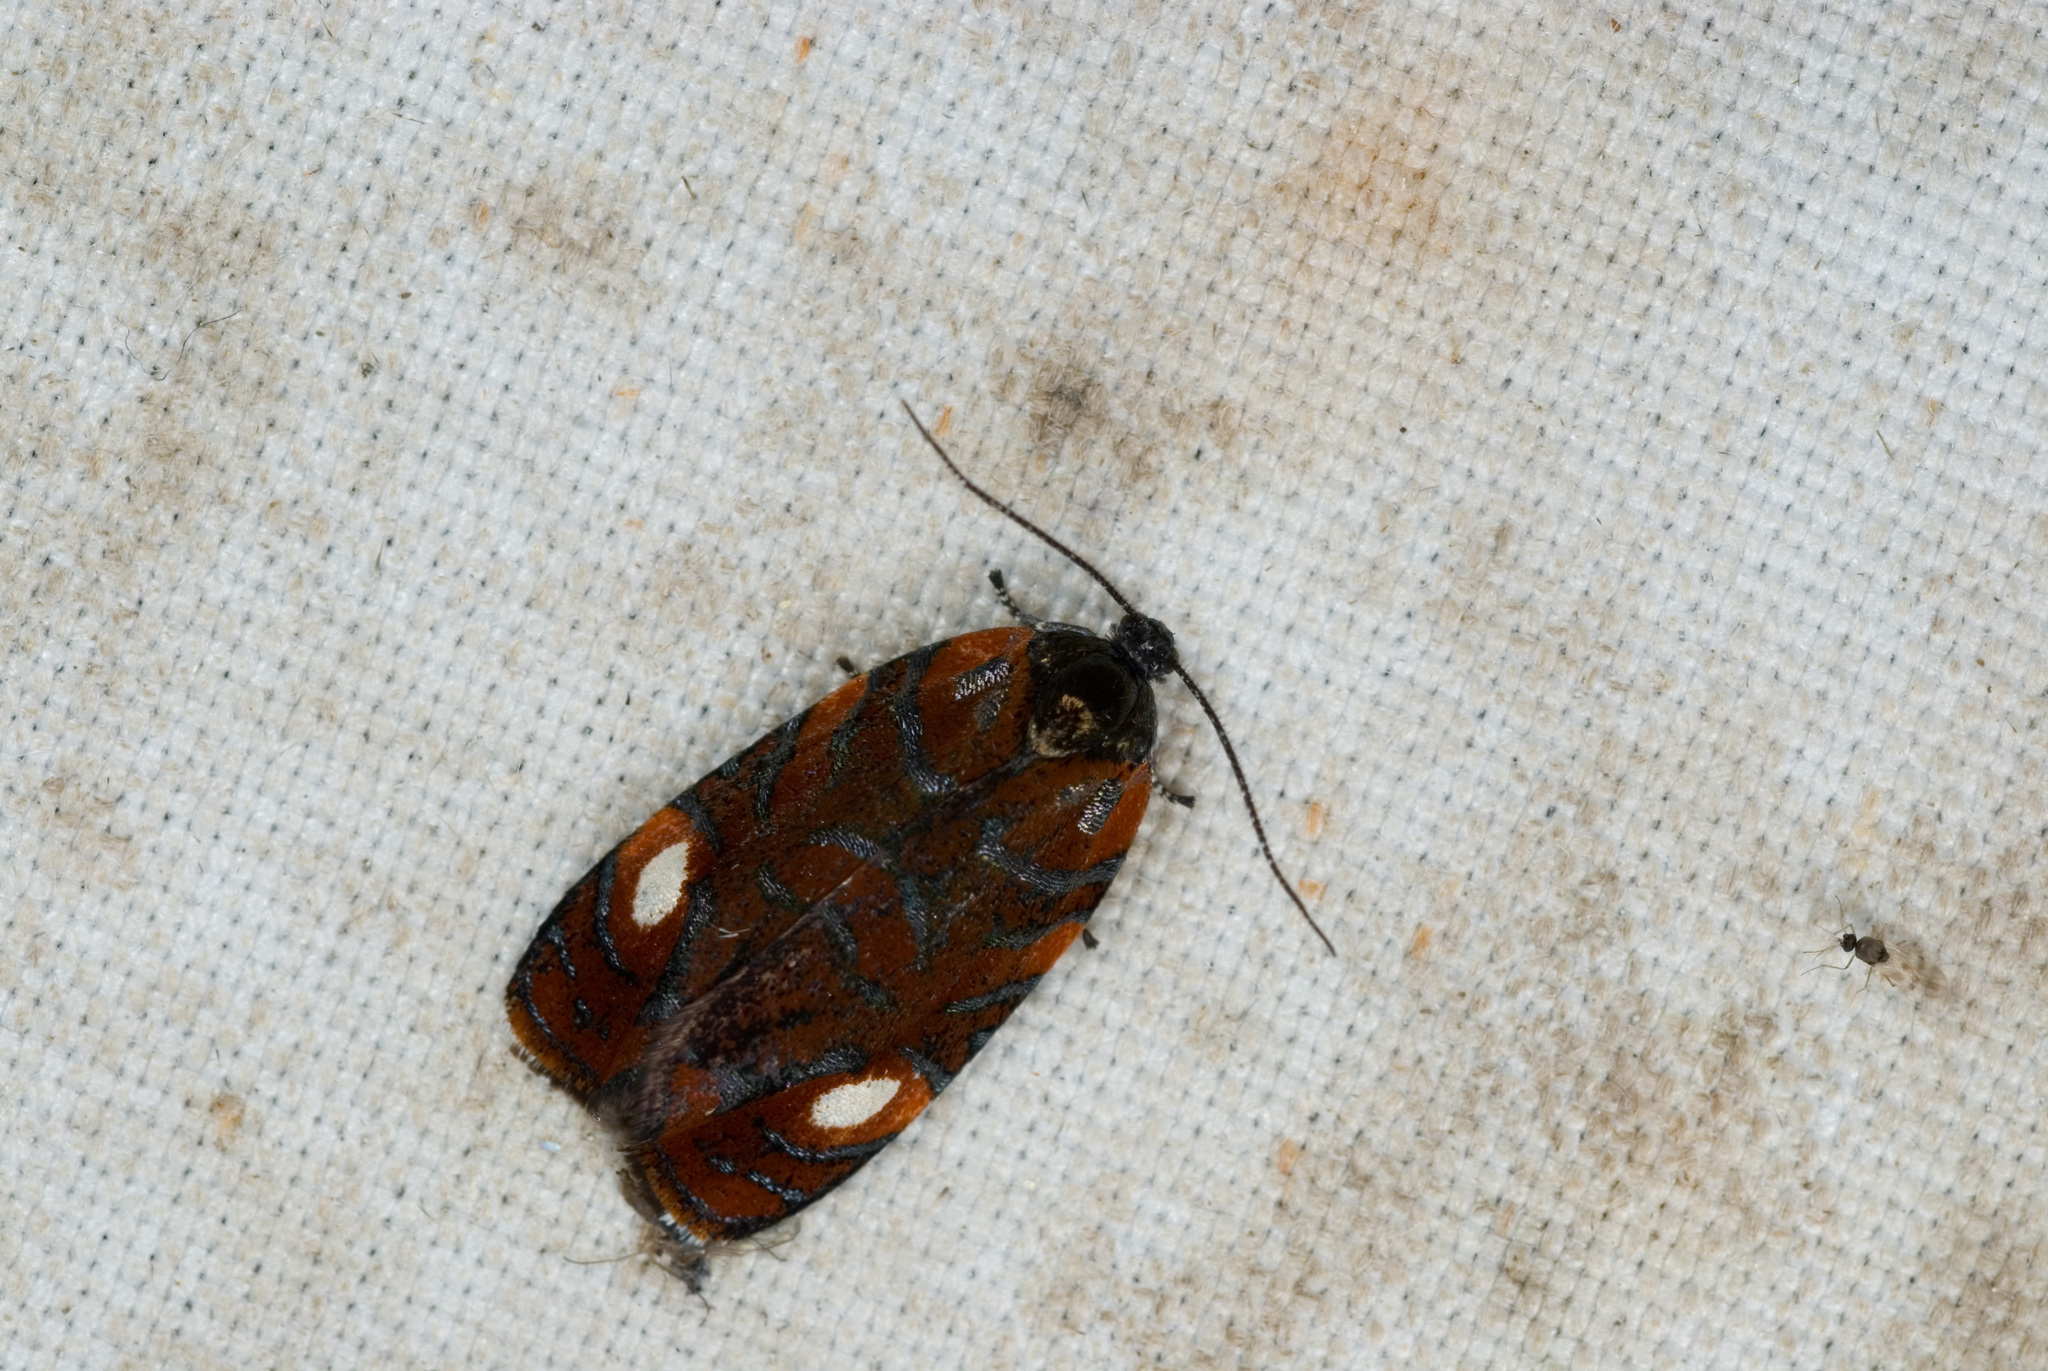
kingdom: Animalia
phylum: Arthropoda
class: Insecta
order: Lepidoptera
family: Tortricidae
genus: Pentacitrotus
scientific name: Pentacitrotus tetrakore
